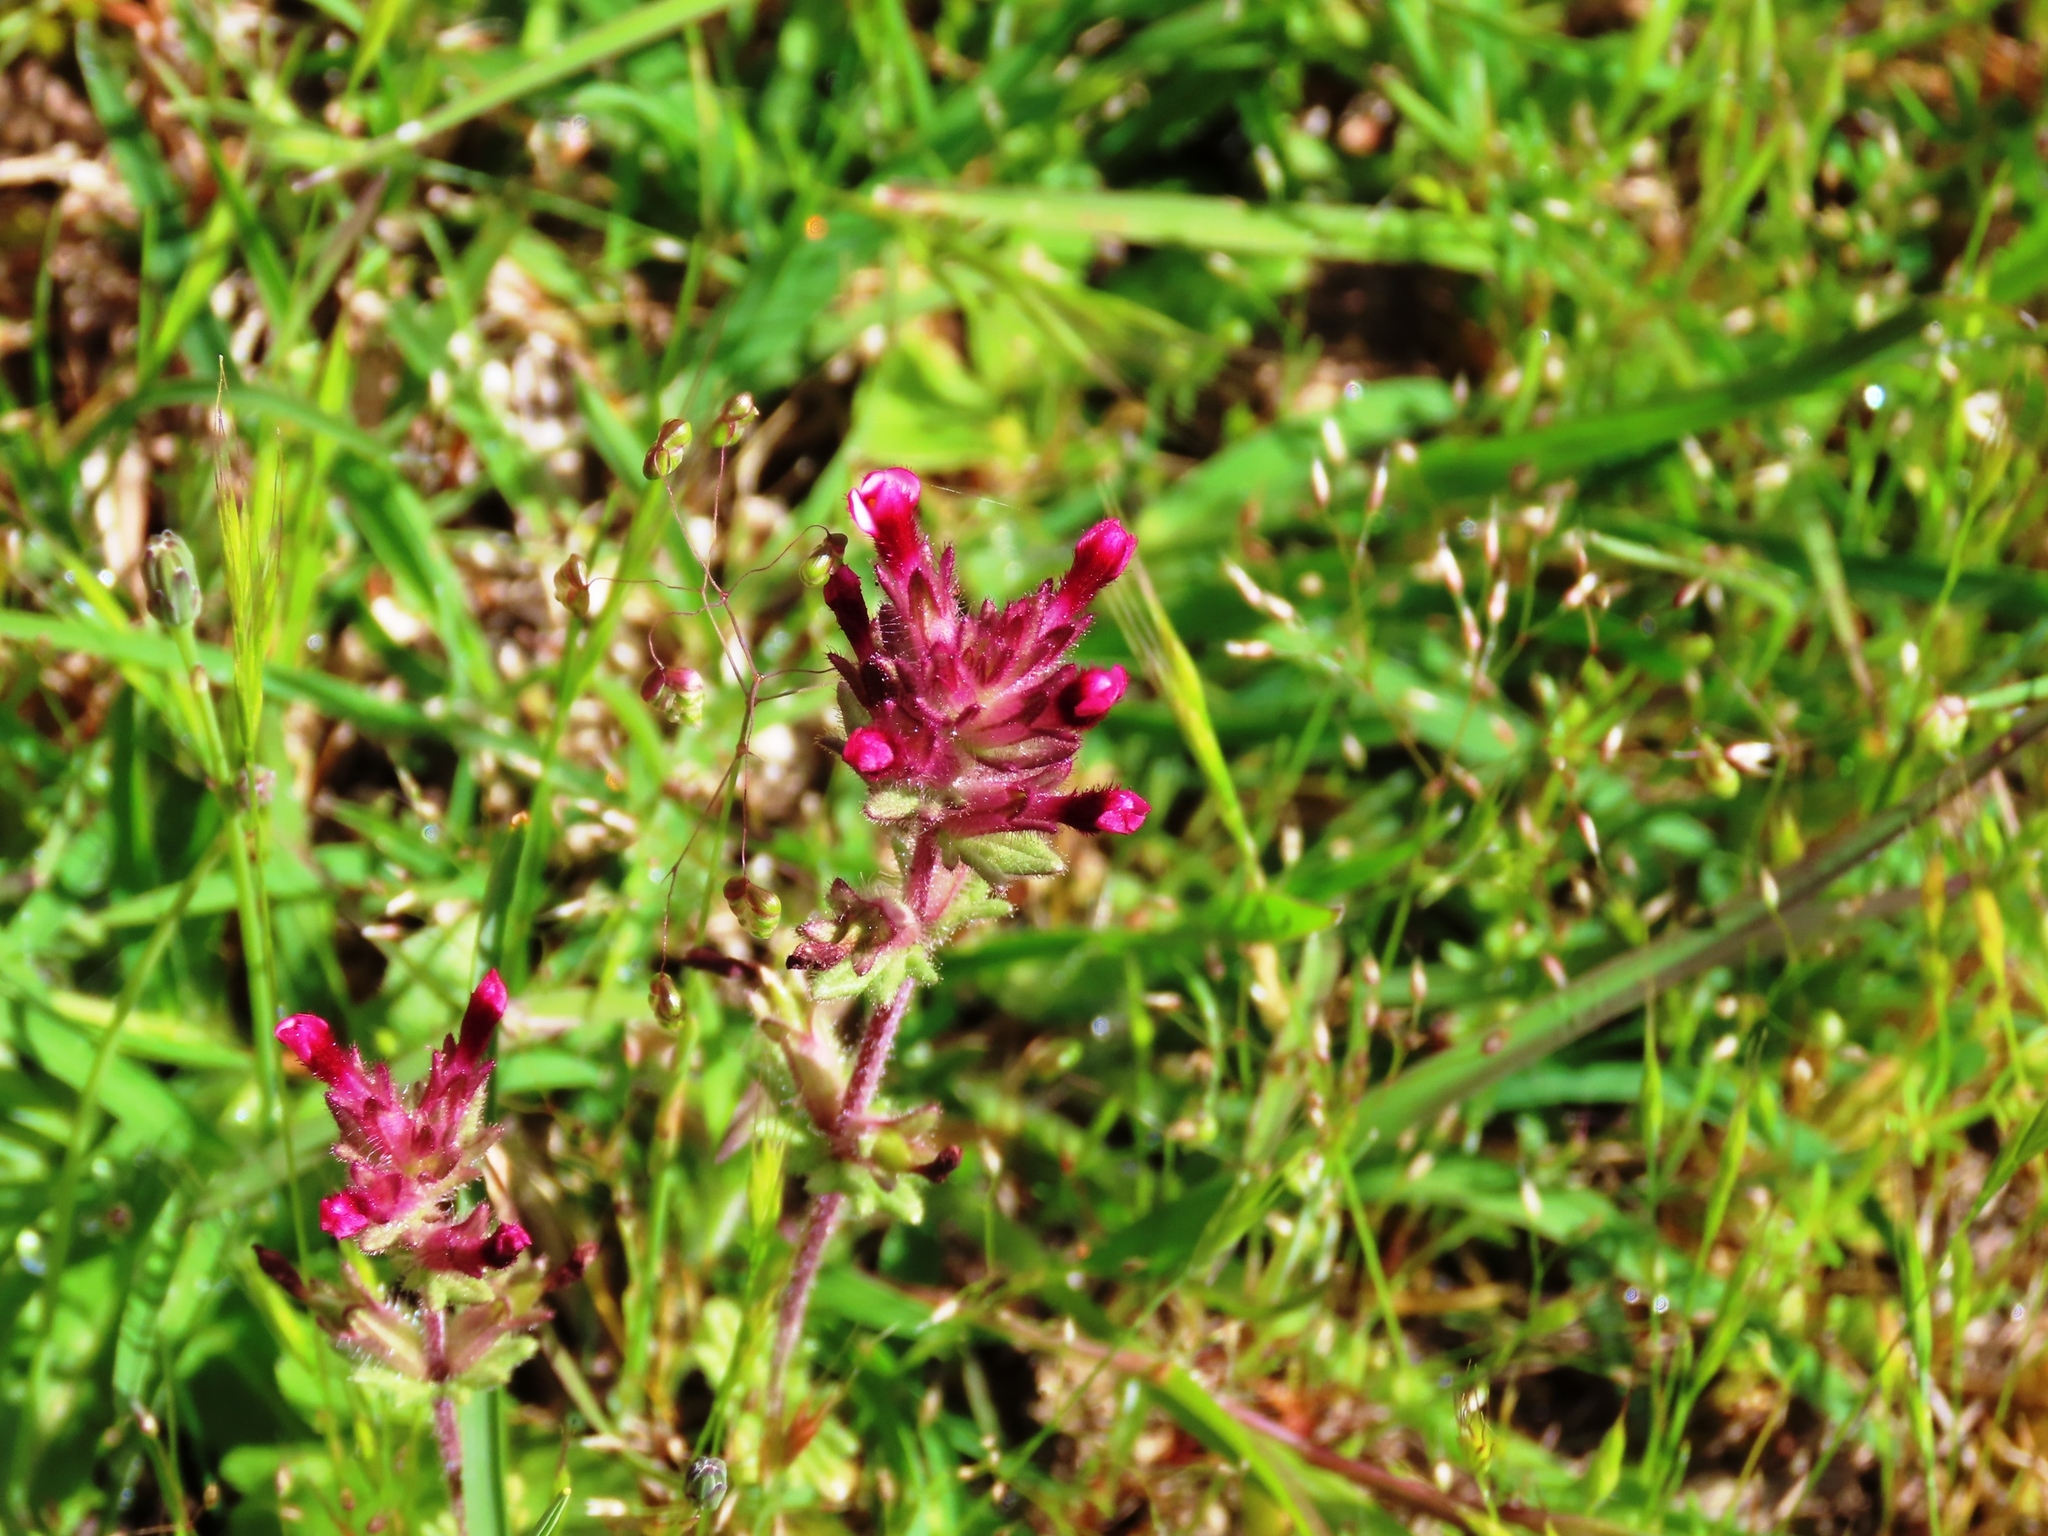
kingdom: Plantae
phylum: Tracheophyta
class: Magnoliopsida
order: Lamiales
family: Orobanchaceae
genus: Parentucellia
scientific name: Parentucellia latifolia
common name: Broadleaf glandweed
